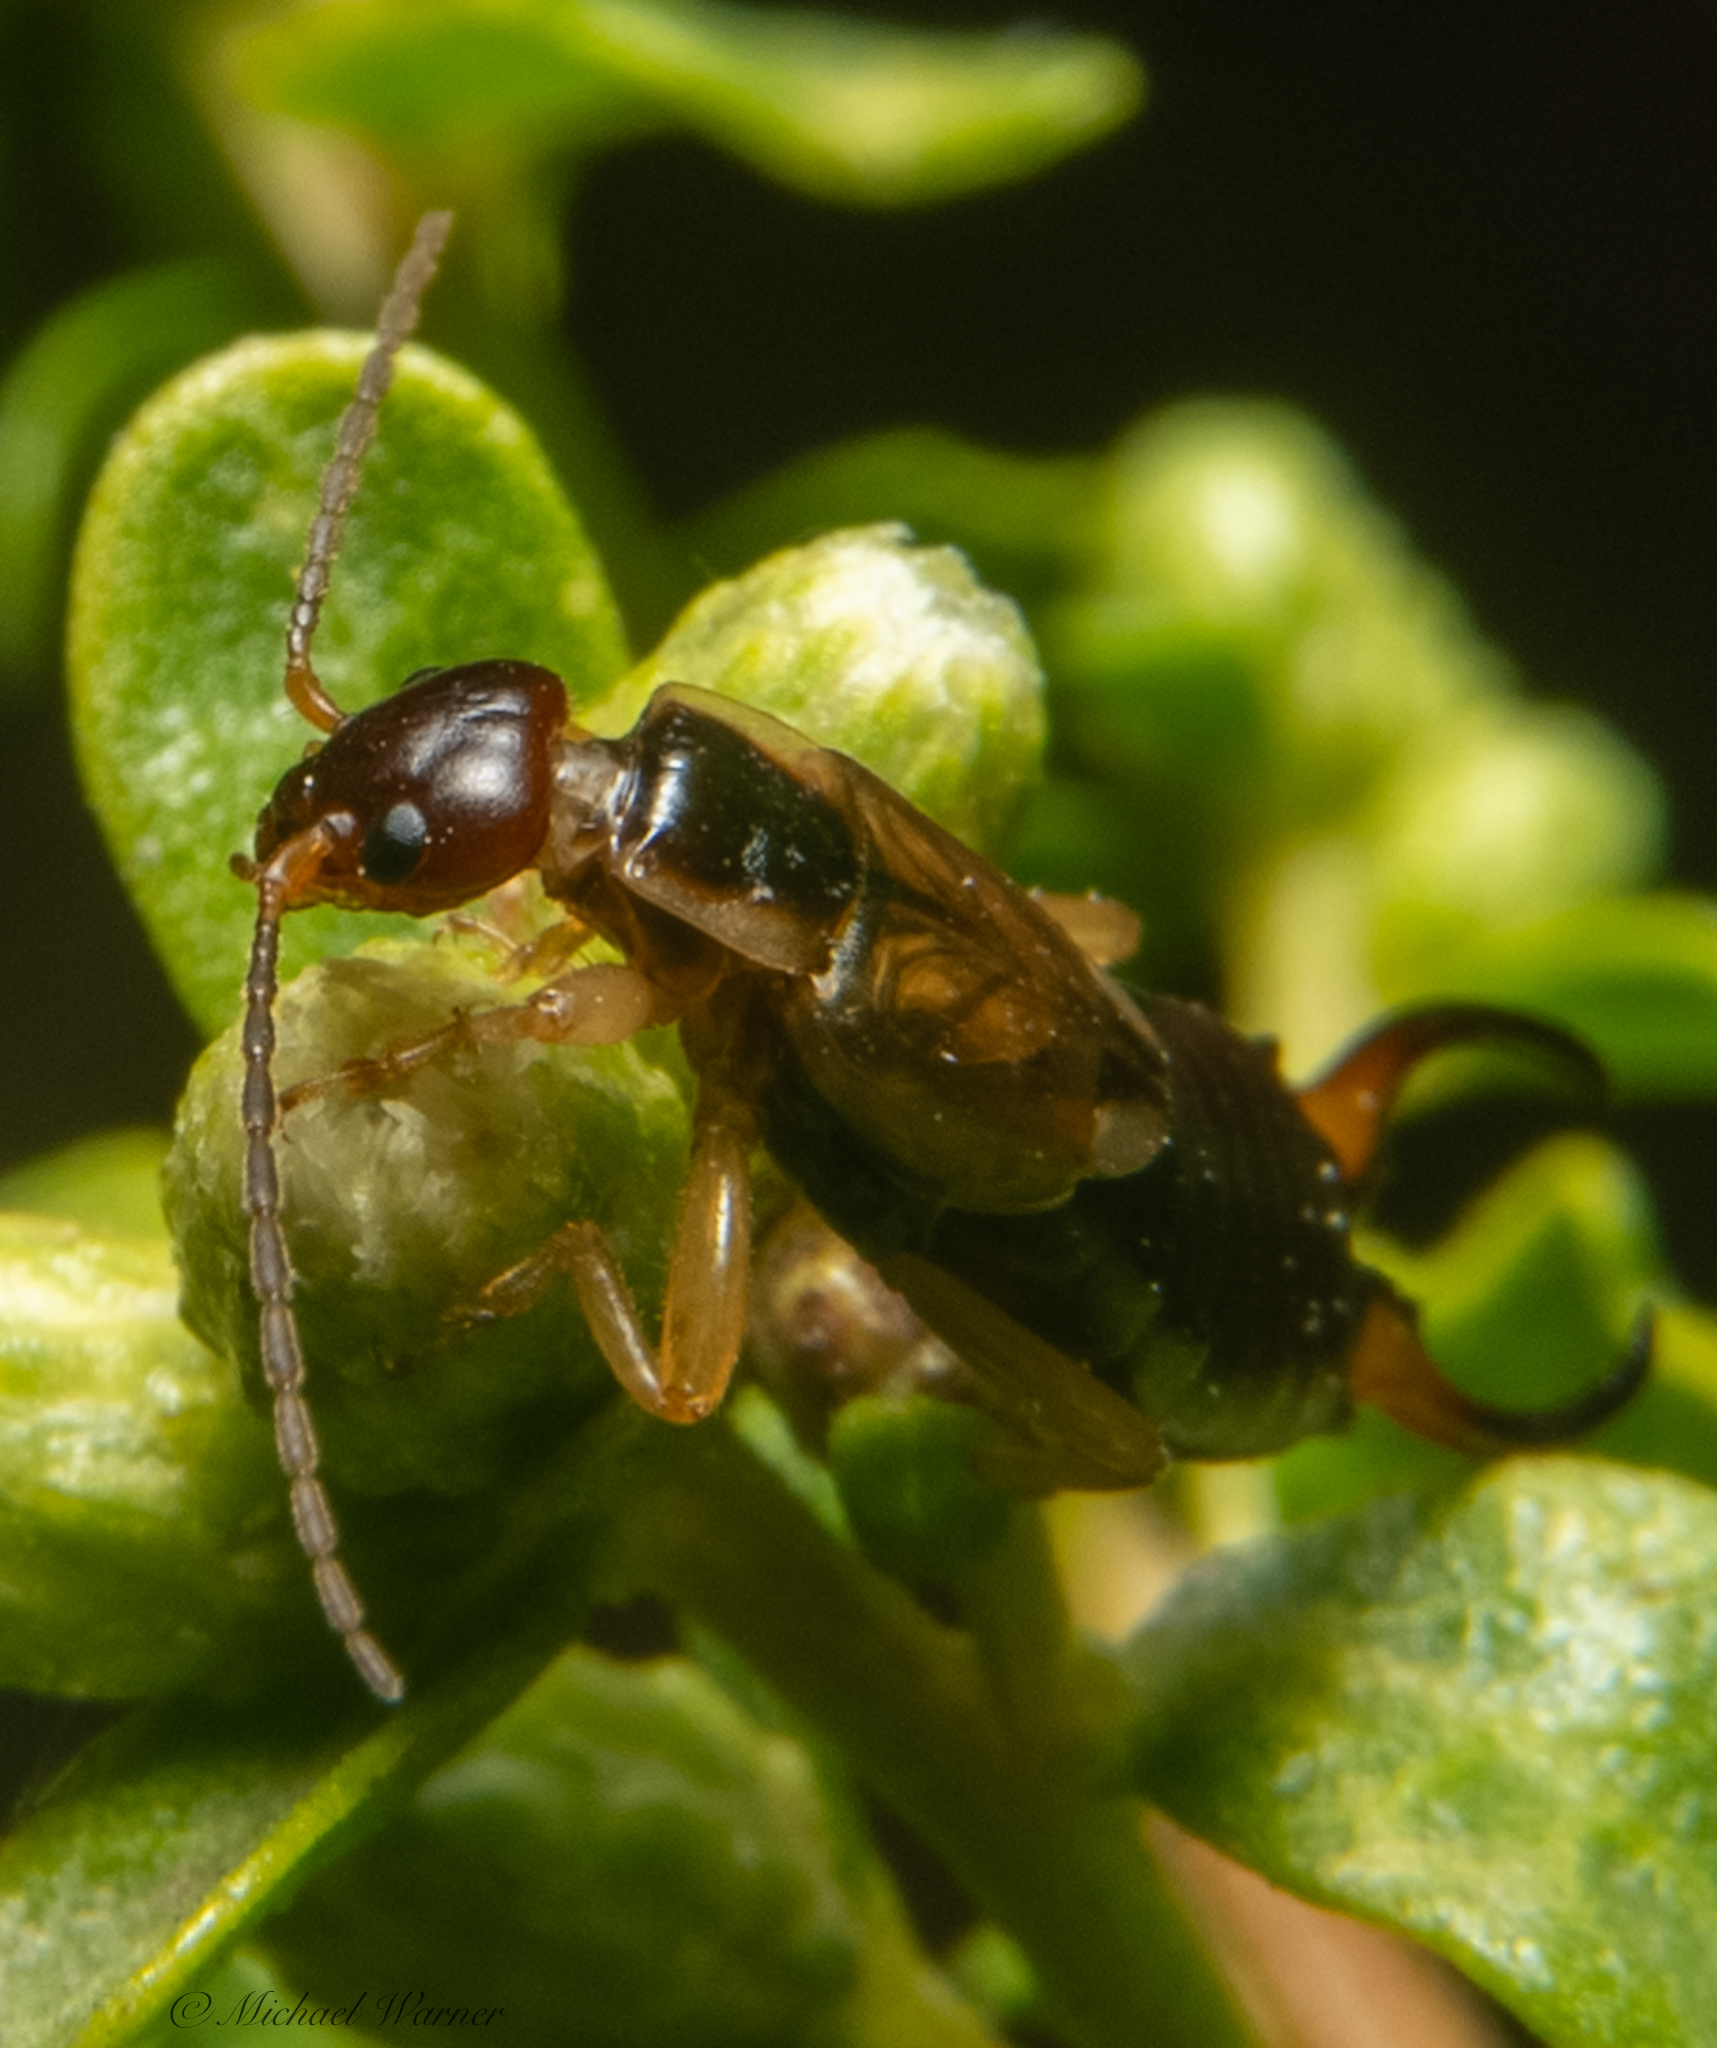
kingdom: Animalia
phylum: Arthropoda
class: Insecta
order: Dermaptera
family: Forficulidae
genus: Forficula
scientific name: Forficula dentata
